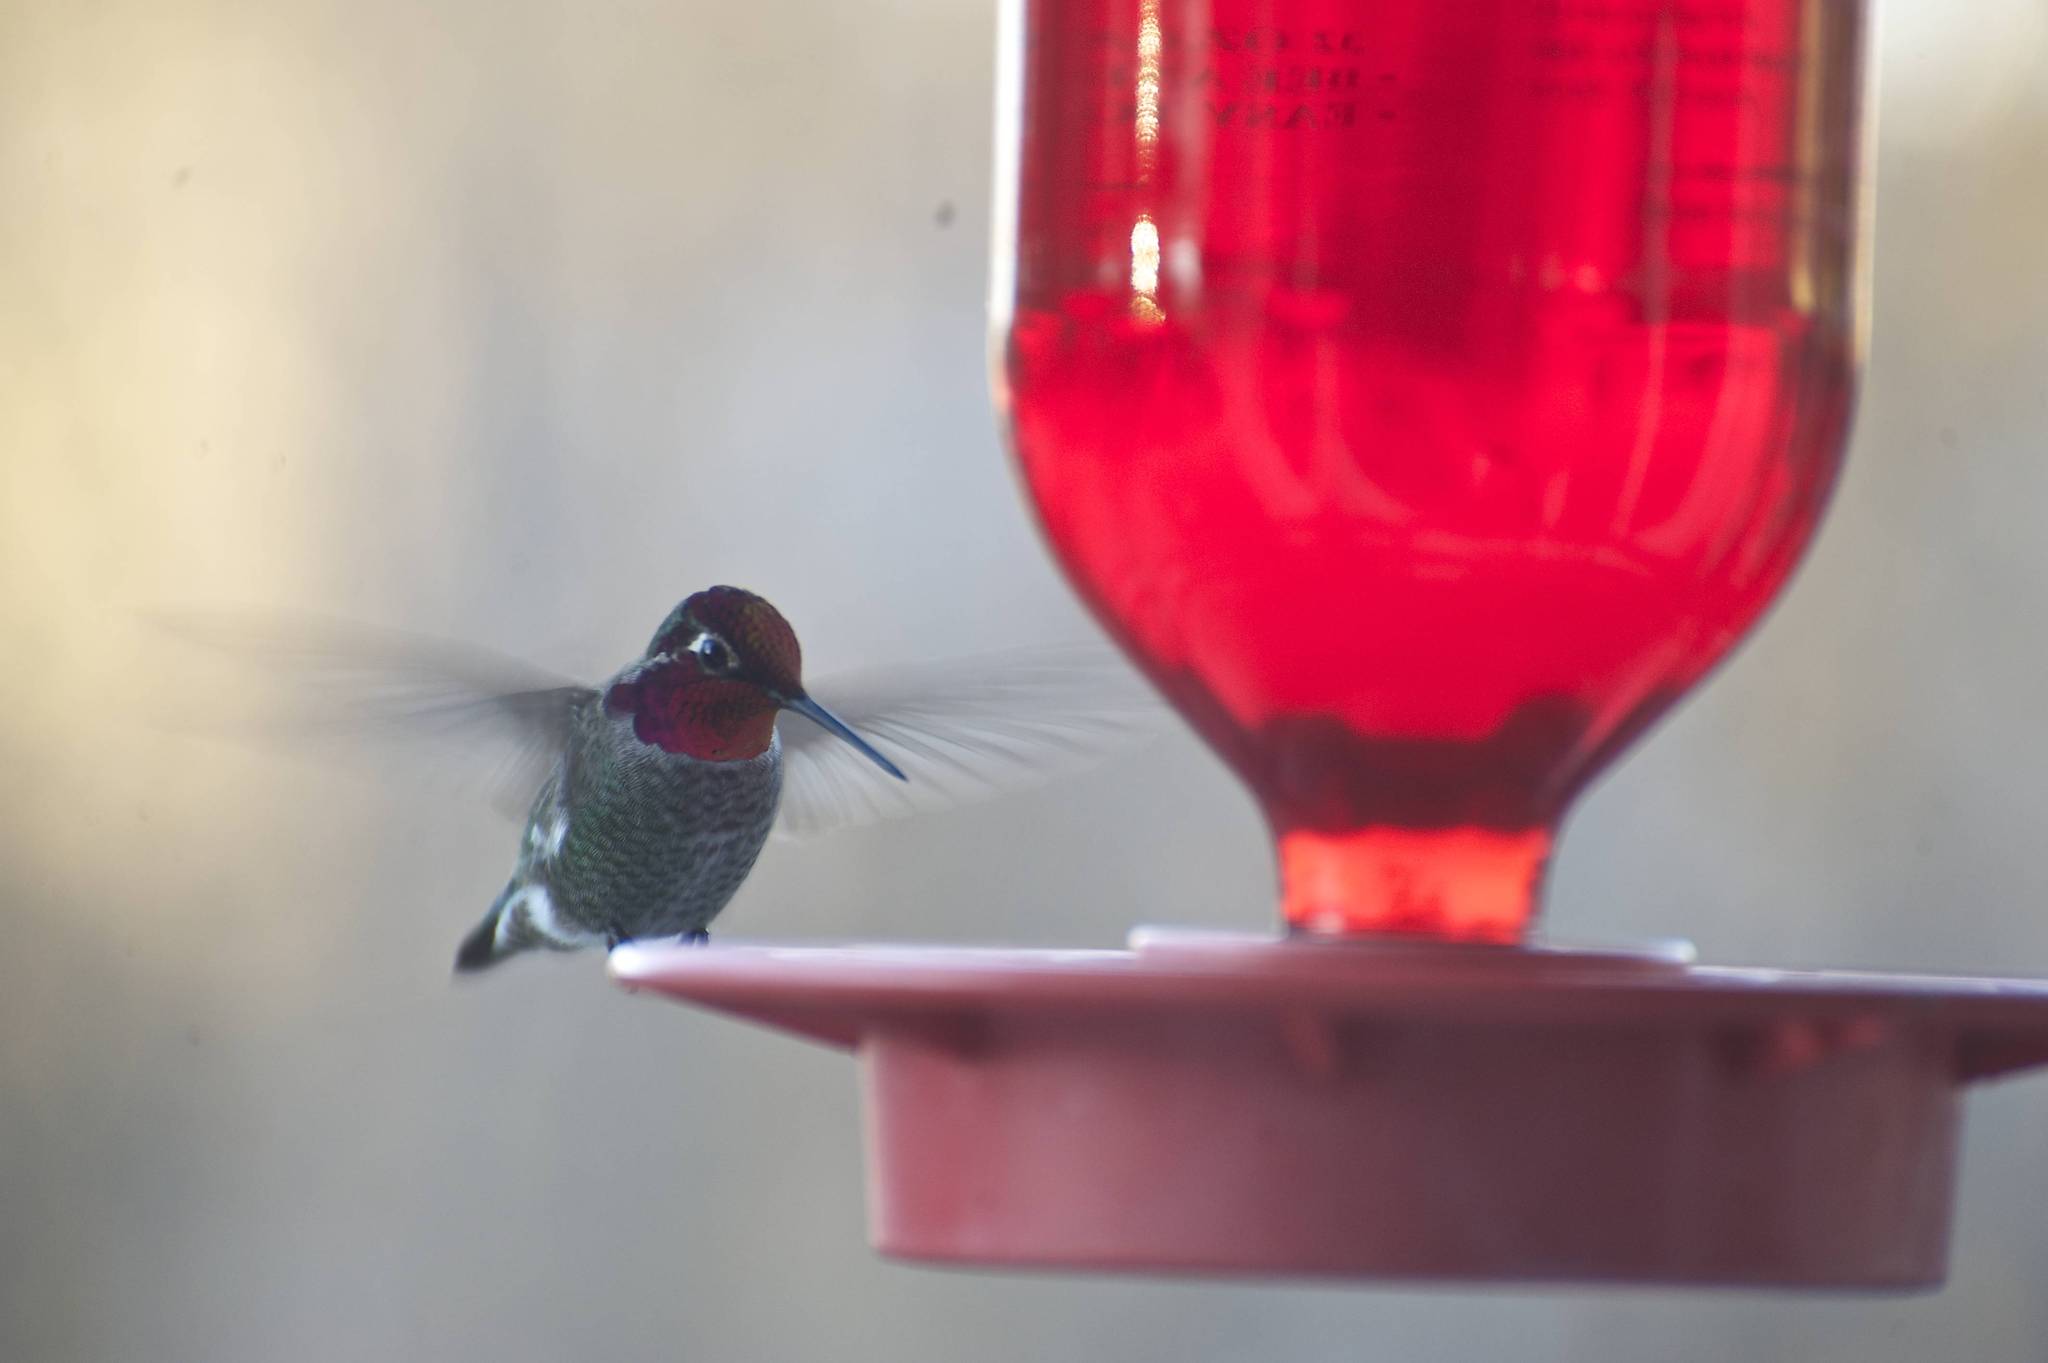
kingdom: Animalia
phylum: Chordata
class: Aves
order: Apodiformes
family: Trochilidae
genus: Calypte
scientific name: Calypte anna
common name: Anna's hummingbird
